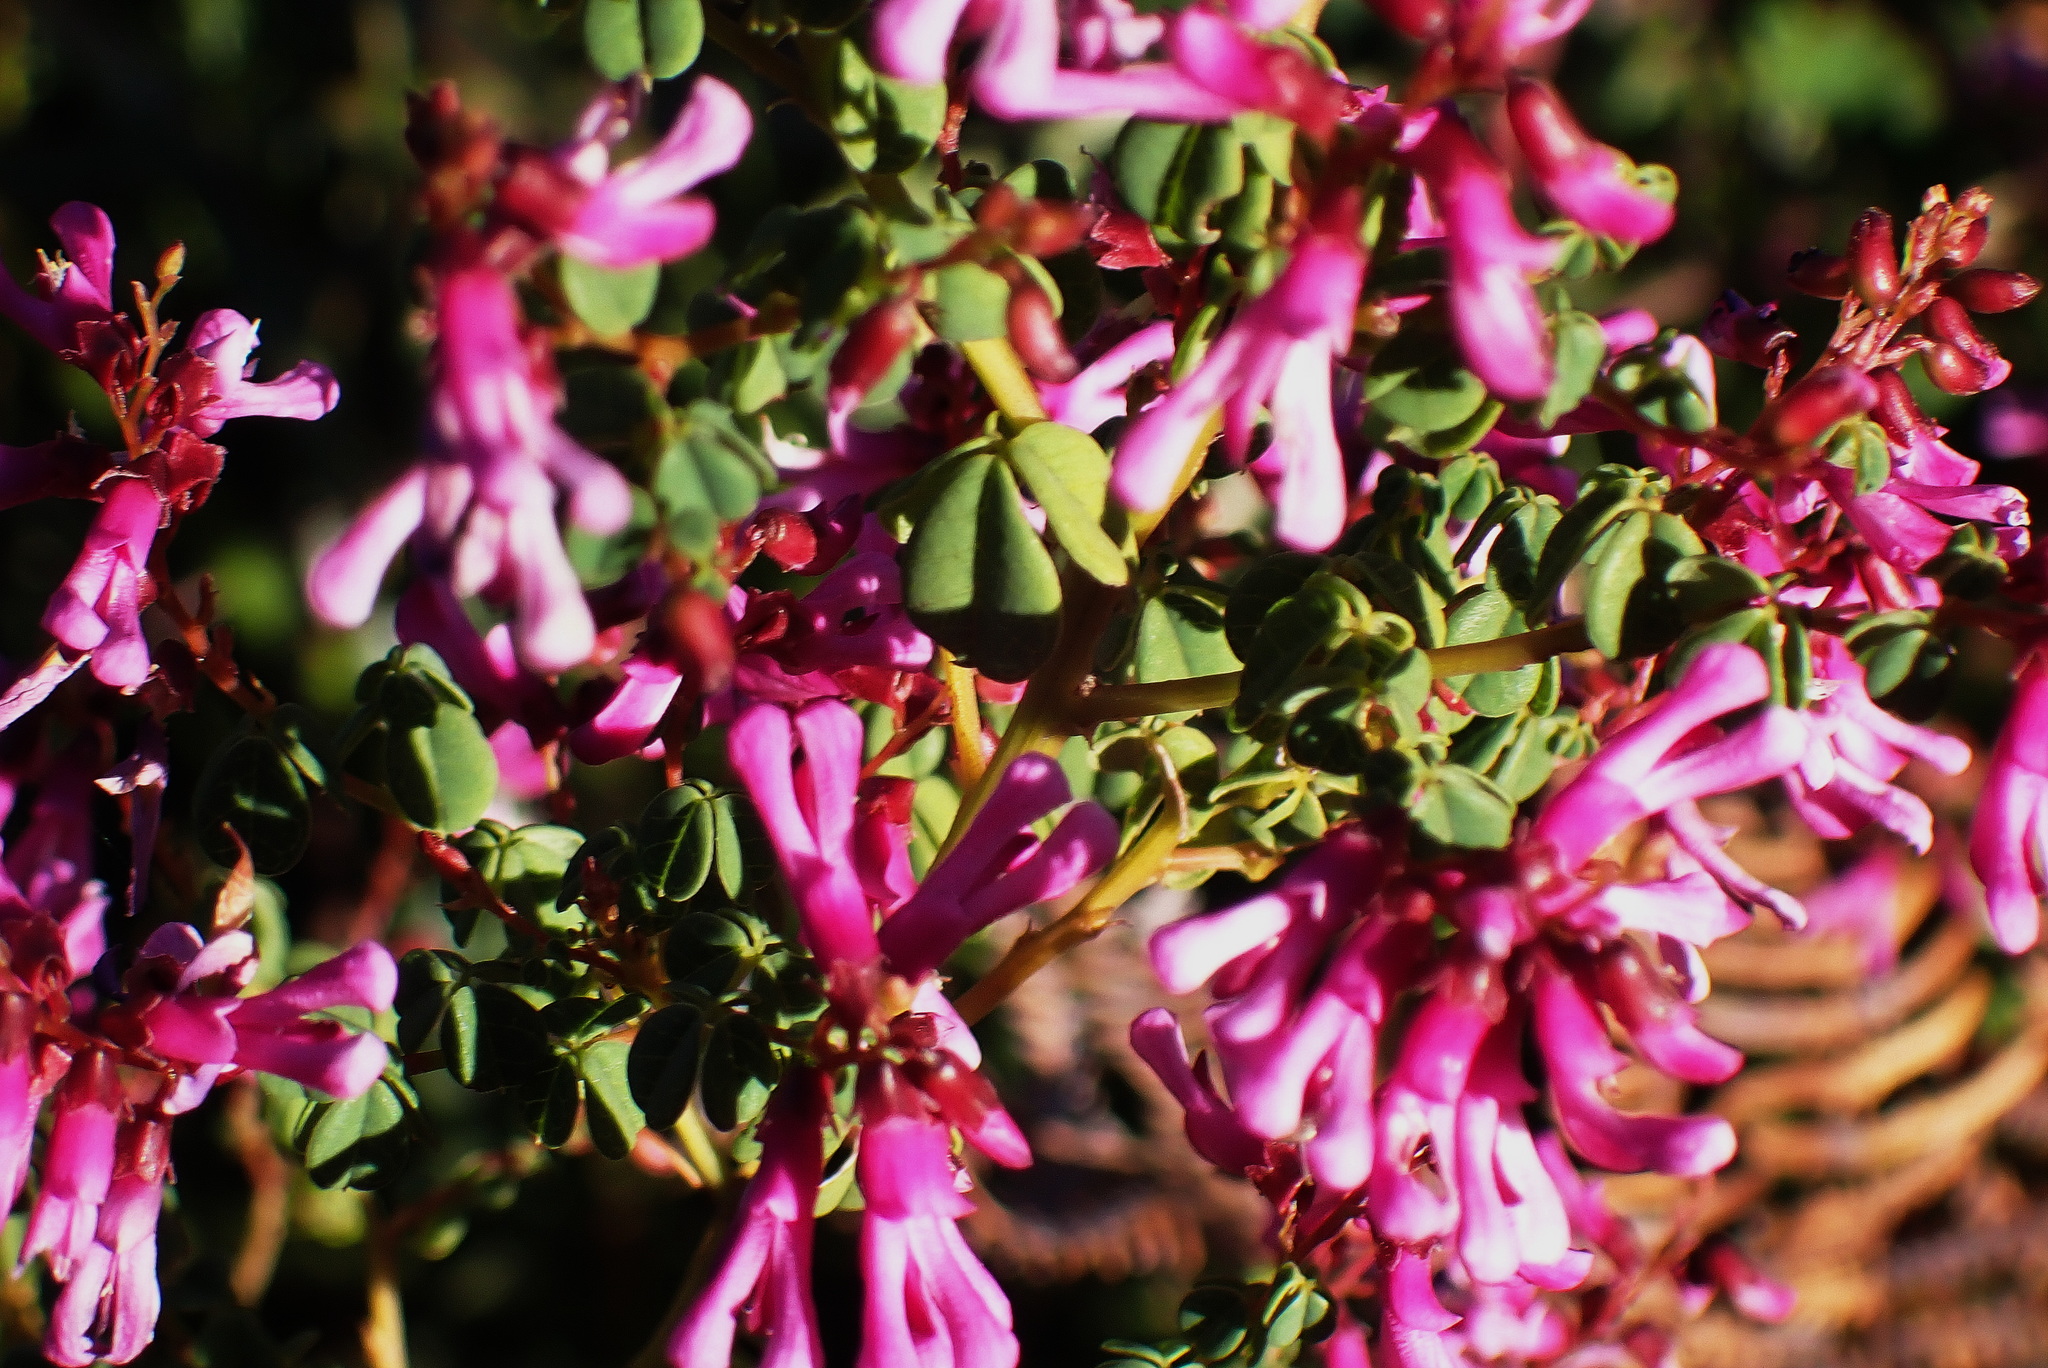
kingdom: Plantae
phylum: Tracheophyta
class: Magnoliopsida
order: Fabales
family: Fabaceae
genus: Hypocalyptus
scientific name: Hypocalyptus oxalidifolius
